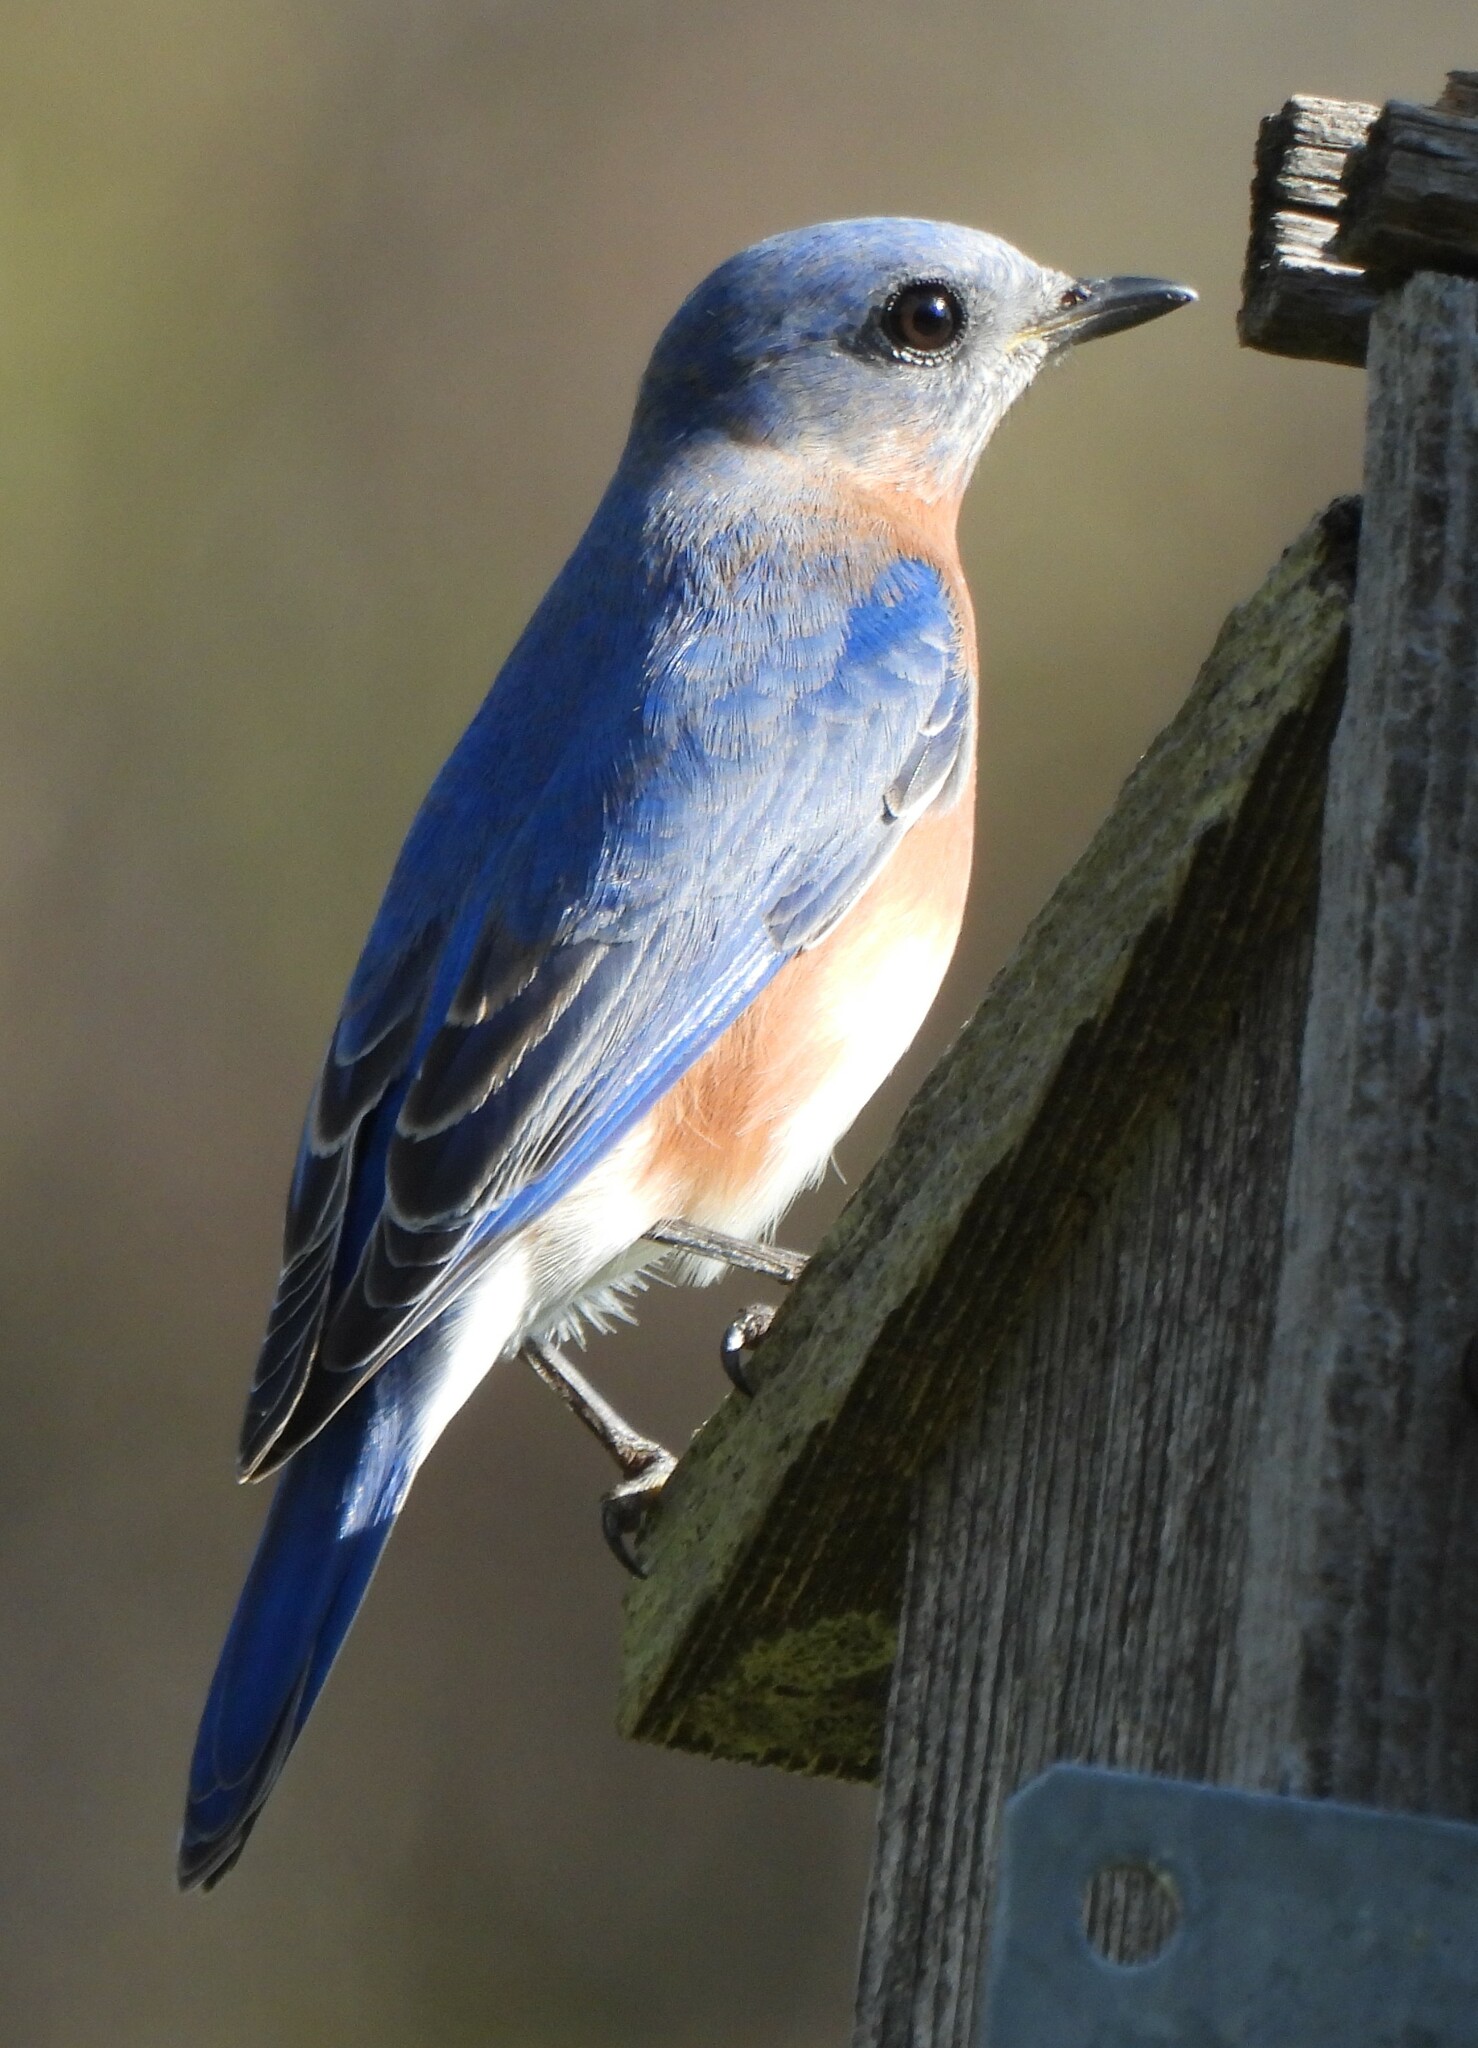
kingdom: Animalia
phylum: Chordata
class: Aves
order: Passeriformes
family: Turdidae
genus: Sialia
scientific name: Sialia sialis
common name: Eastern bluebird
